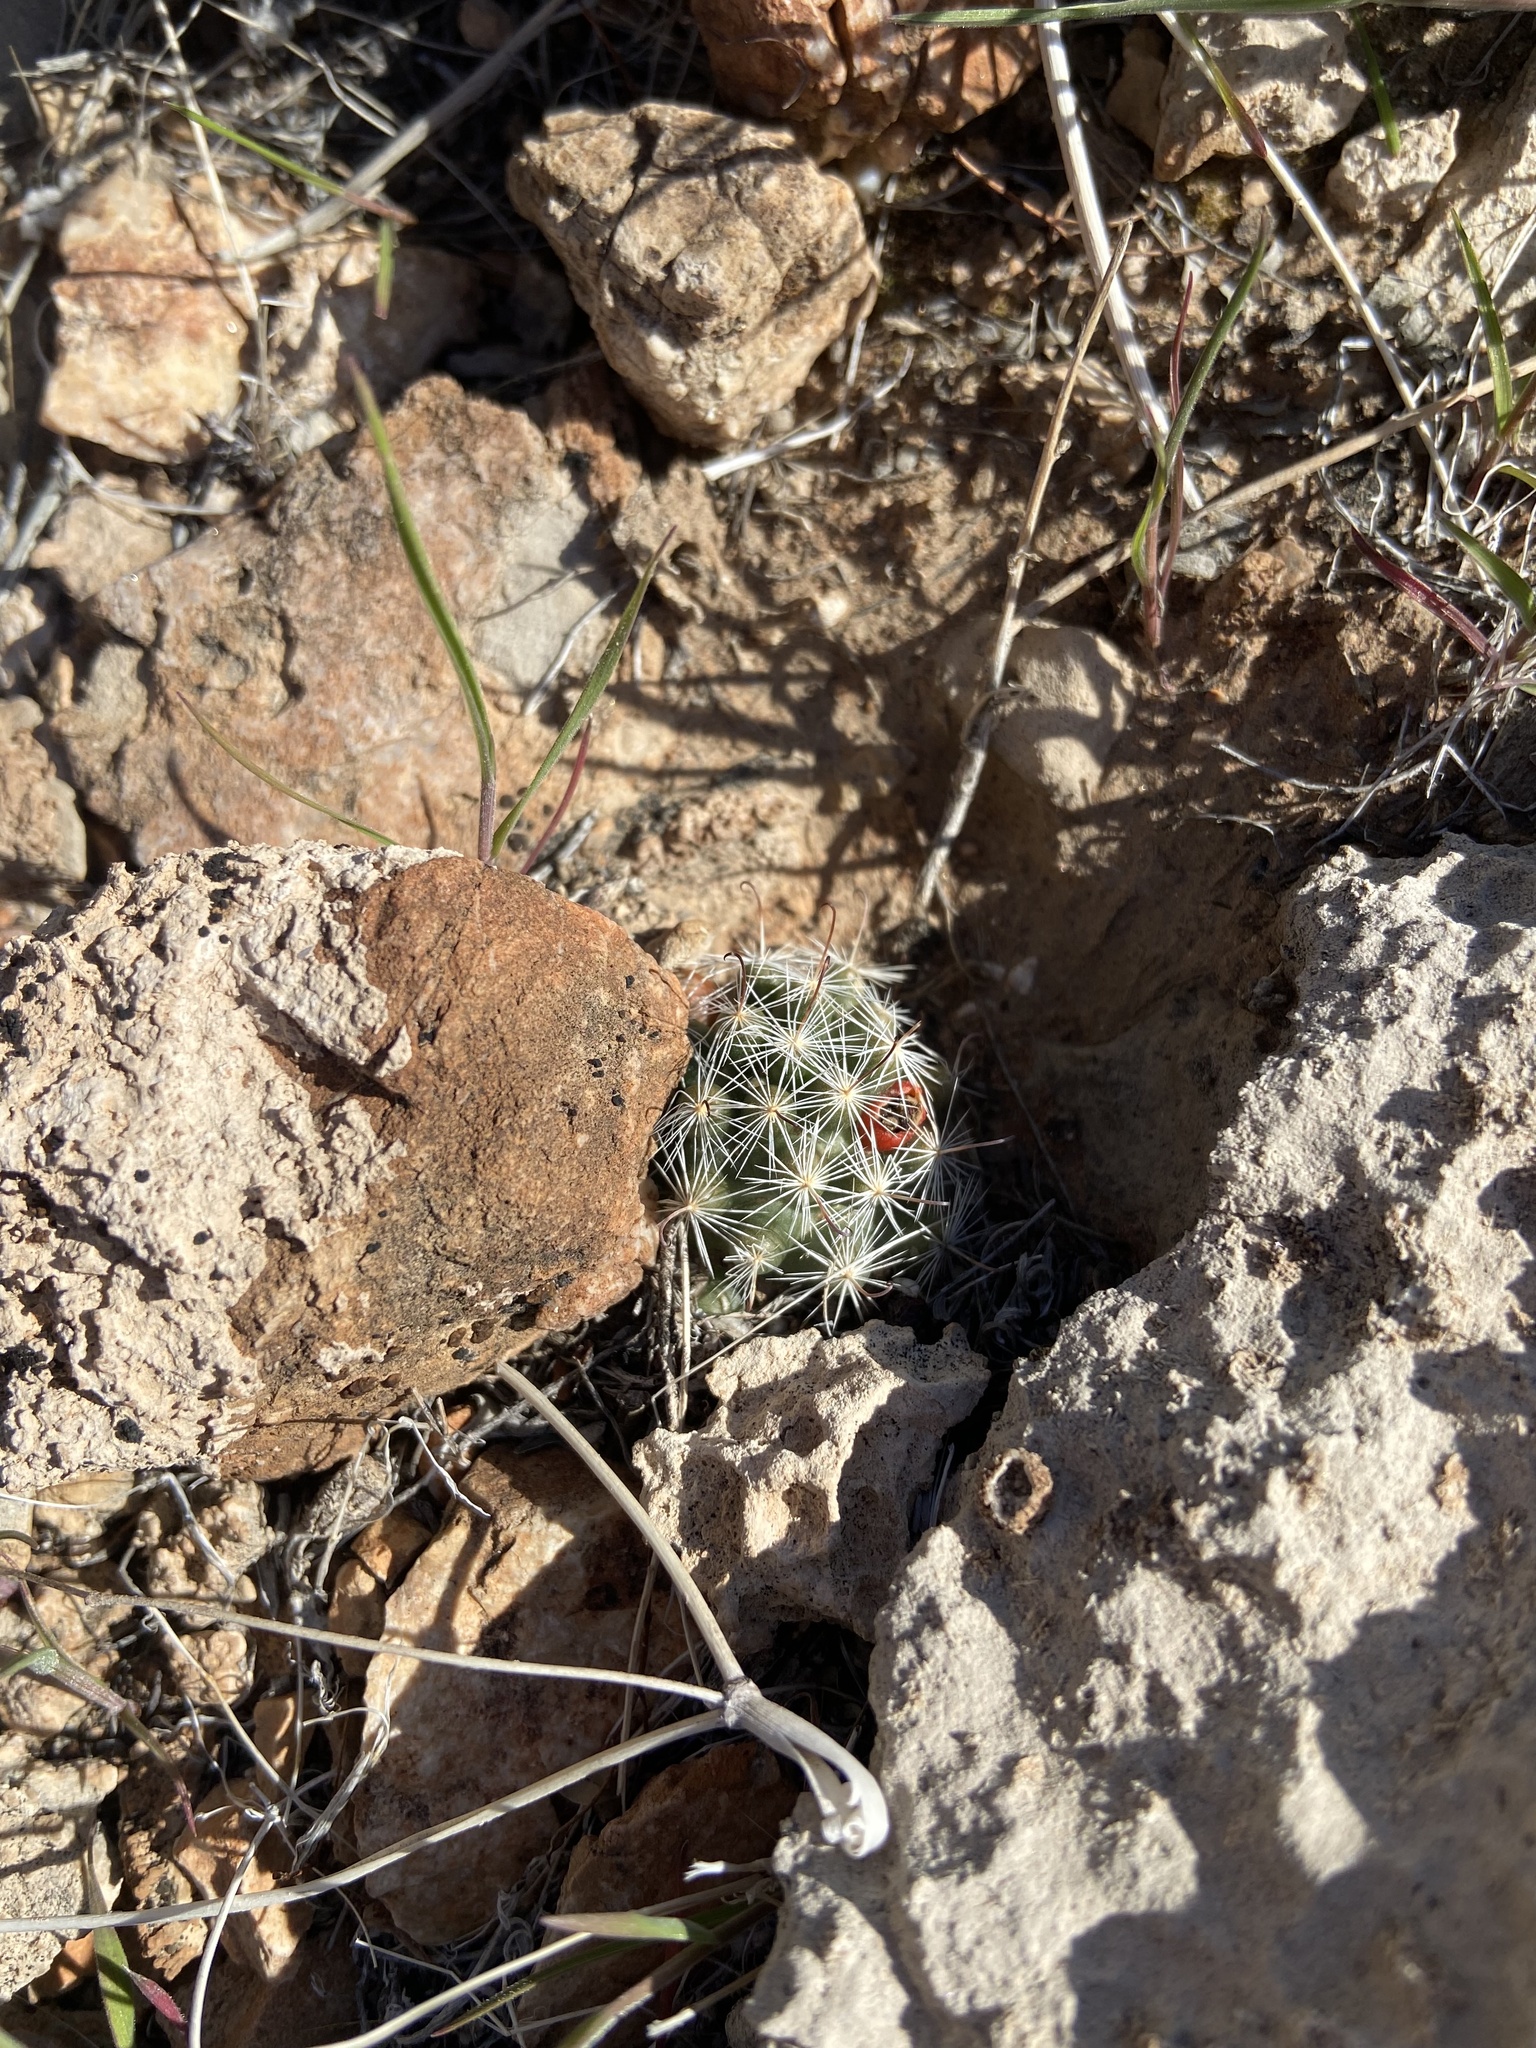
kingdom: Plantae
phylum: Tracheophyta
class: Magnoliopsida
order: Caryophyllales
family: Cactaceae
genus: Cochemiea
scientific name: Cochemiea tetrancistra
